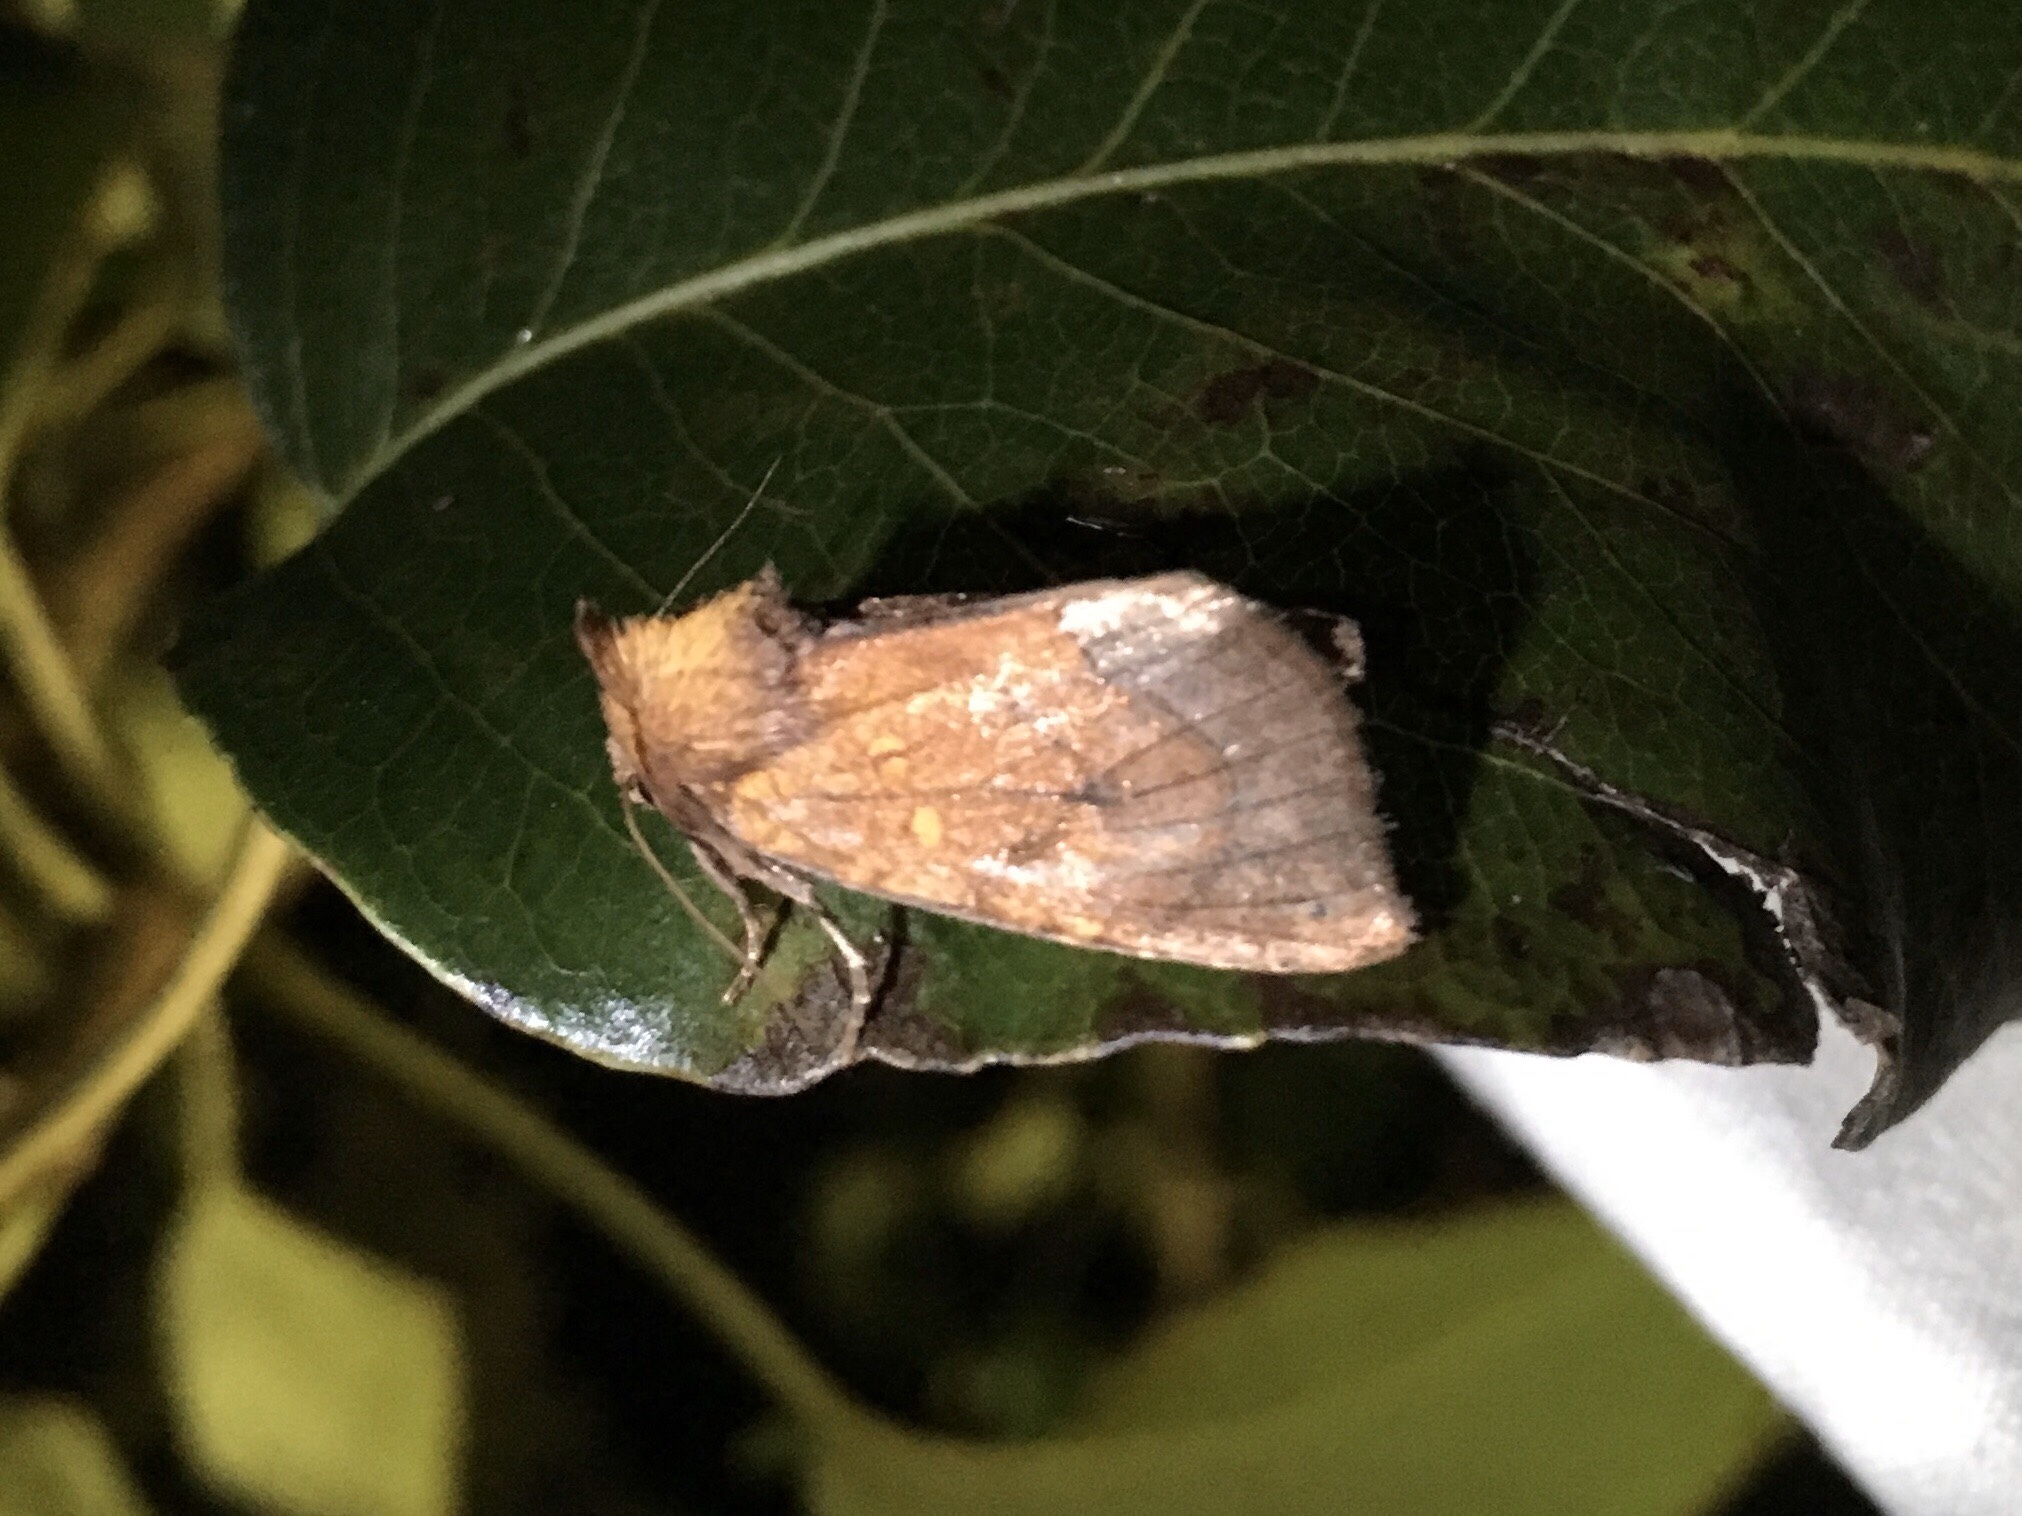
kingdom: Animalia
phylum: Arthropoda
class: Insecta
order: Lepidoptera
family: Noctuidae
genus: Papaipema
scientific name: Papaipema inquaesita
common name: Sensitive fern borer moth
